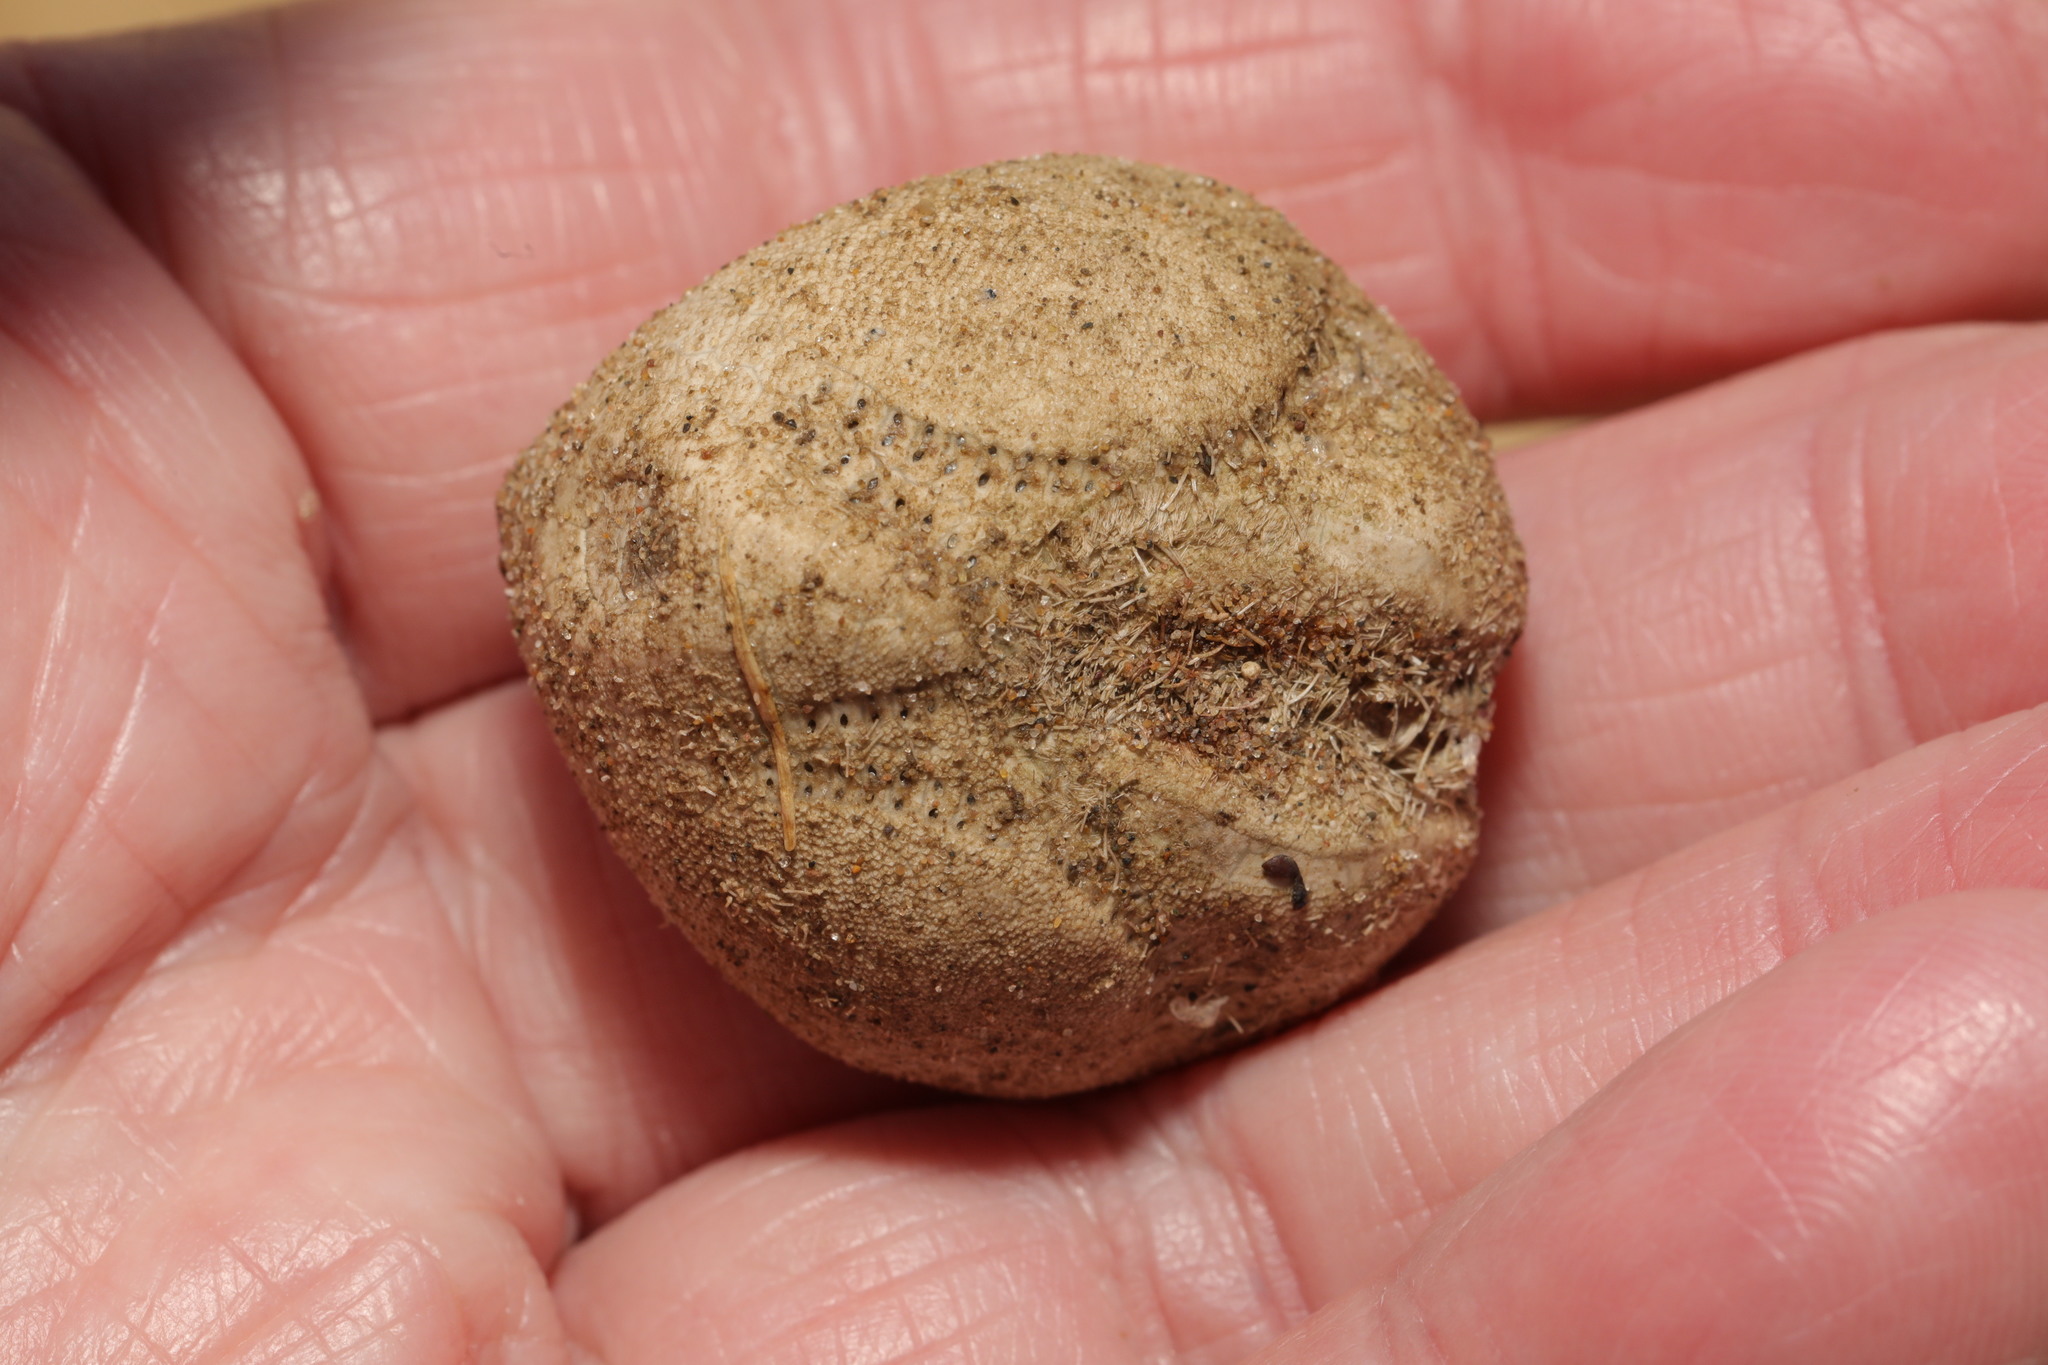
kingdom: Animalia
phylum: Echinodermata
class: Echinoidea
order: Spatangoida
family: Loveniidae
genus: Echinocardium
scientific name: Echinocardium cordatum
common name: Heart-urchin
